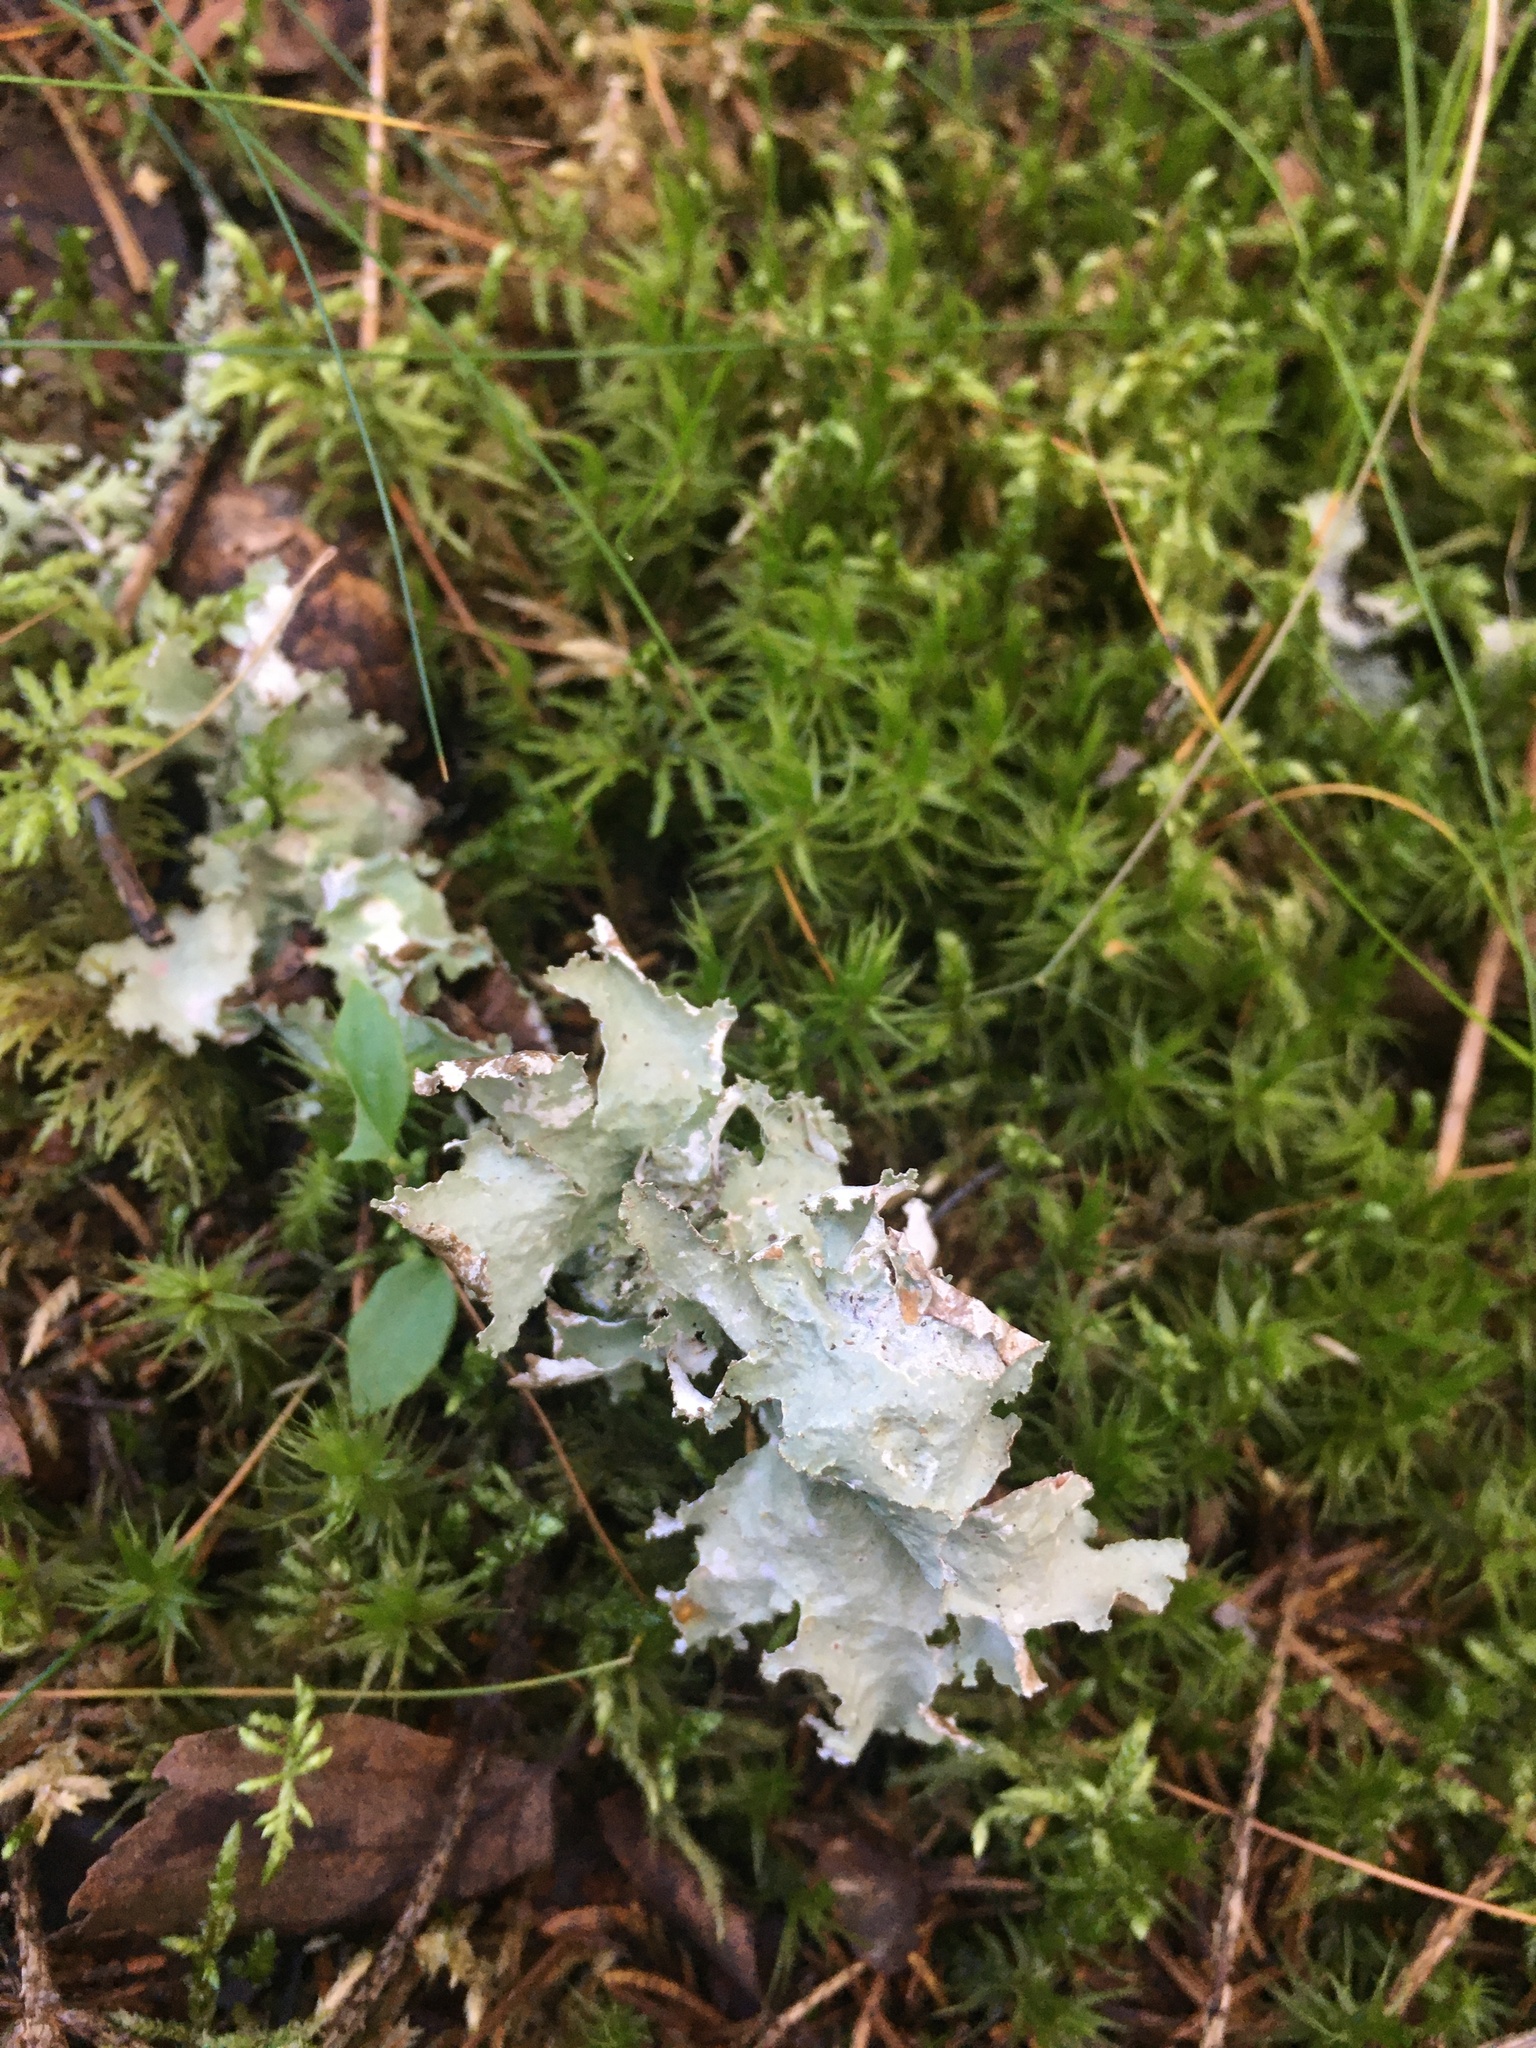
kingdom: Fungi
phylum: Ascomycota
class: Lecanoromycetes
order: Lecanorales
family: Parmeliaceae
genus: Platismatia
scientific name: Platismatia glauca
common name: Varied rag lichen
